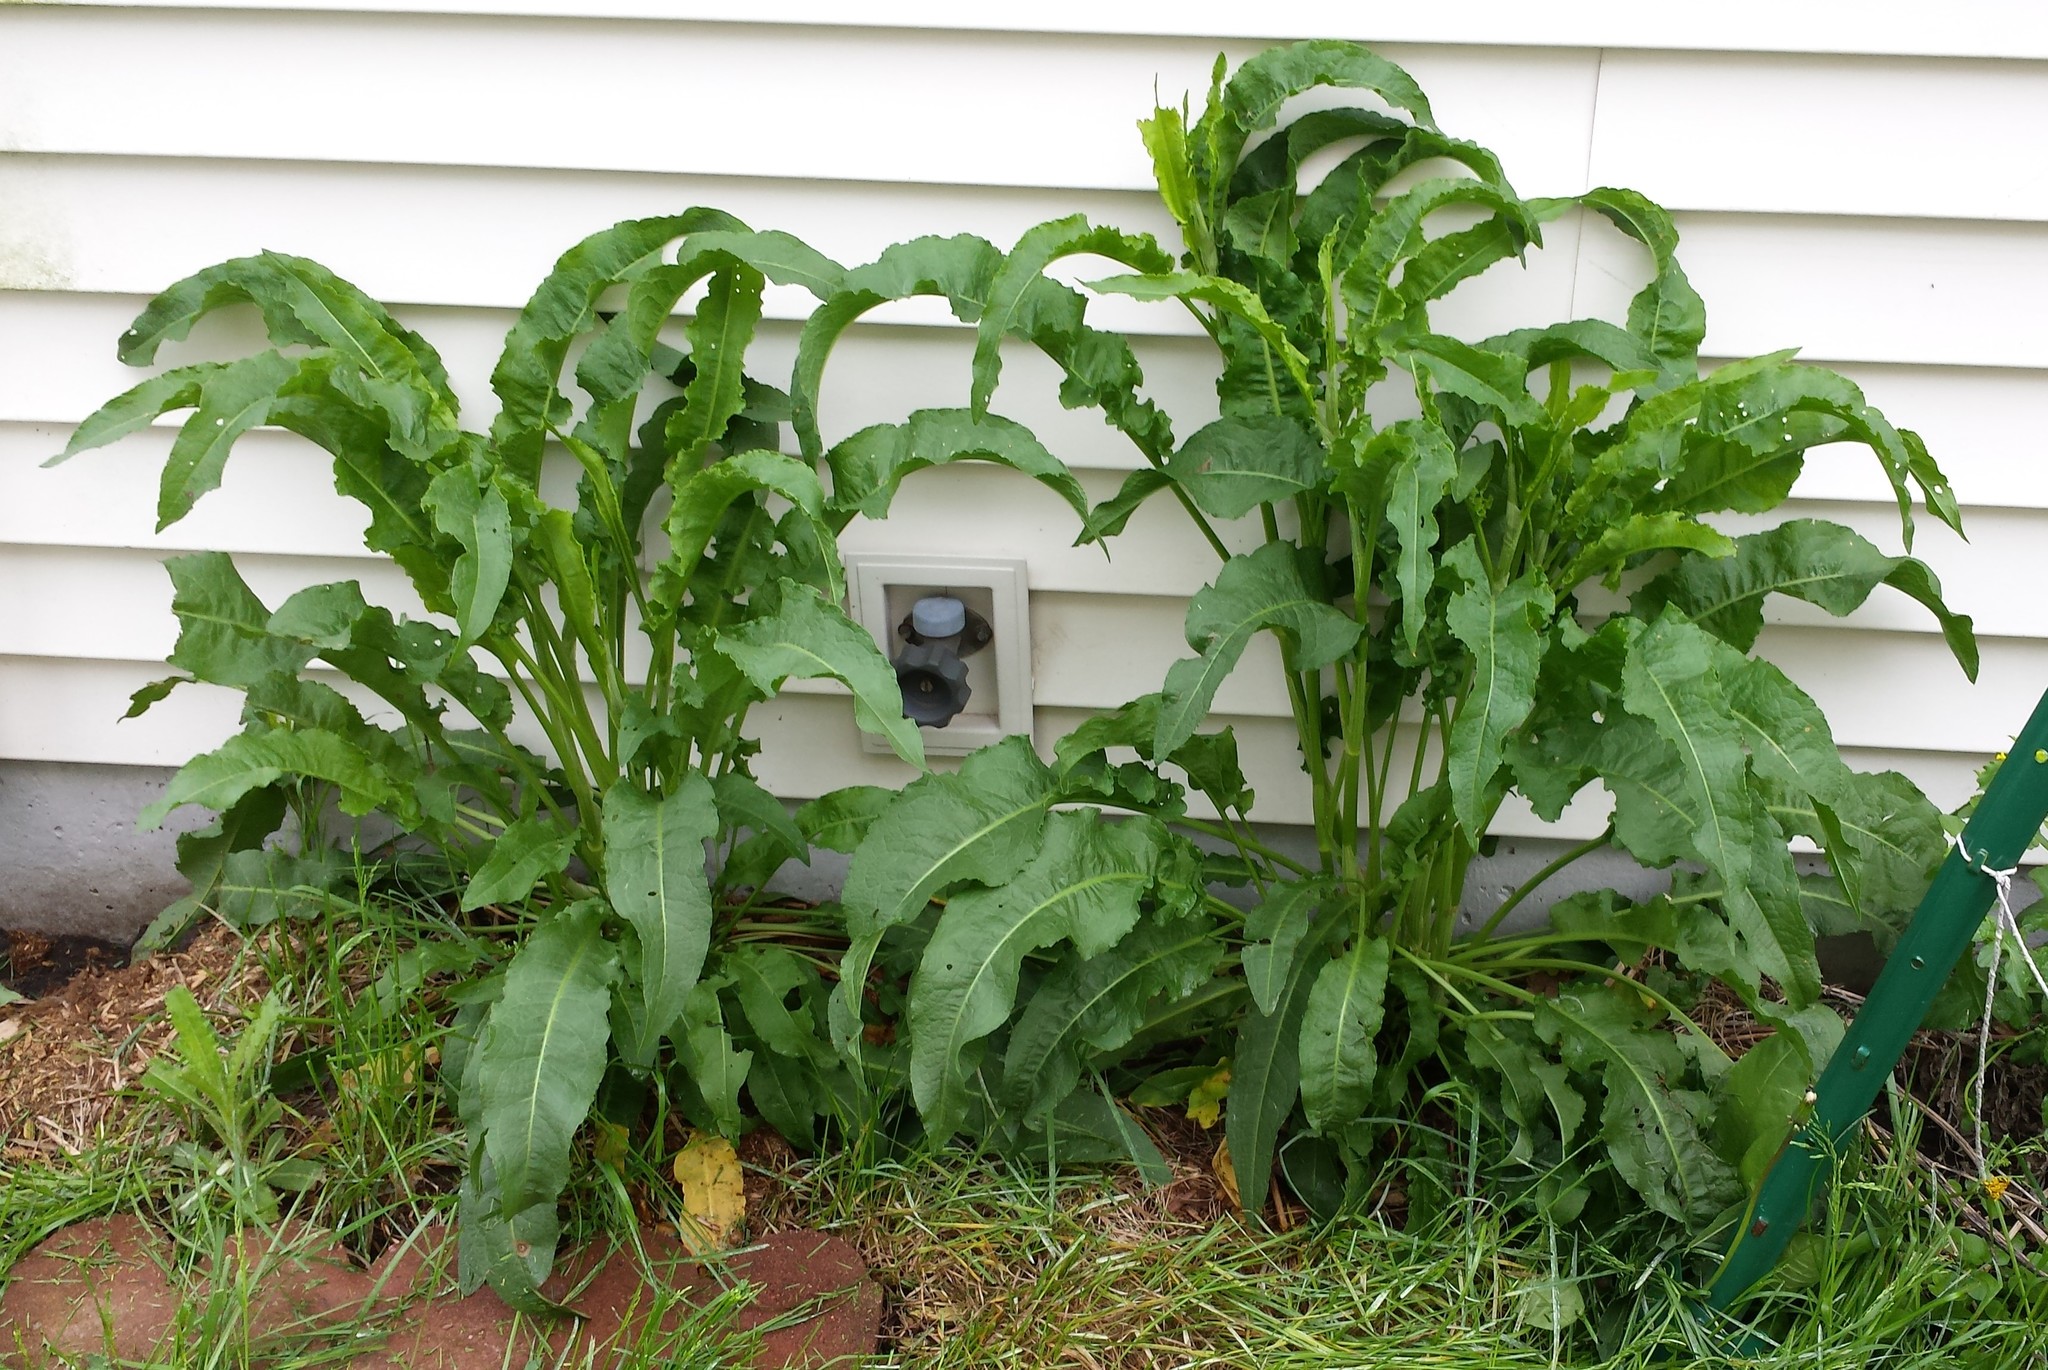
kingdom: Plantae
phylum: Tracheophyta
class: Magnoliopsida
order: Caryophyllales
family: Polygonaceae
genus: Rumex
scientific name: Rumex crispus
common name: Curled dock
